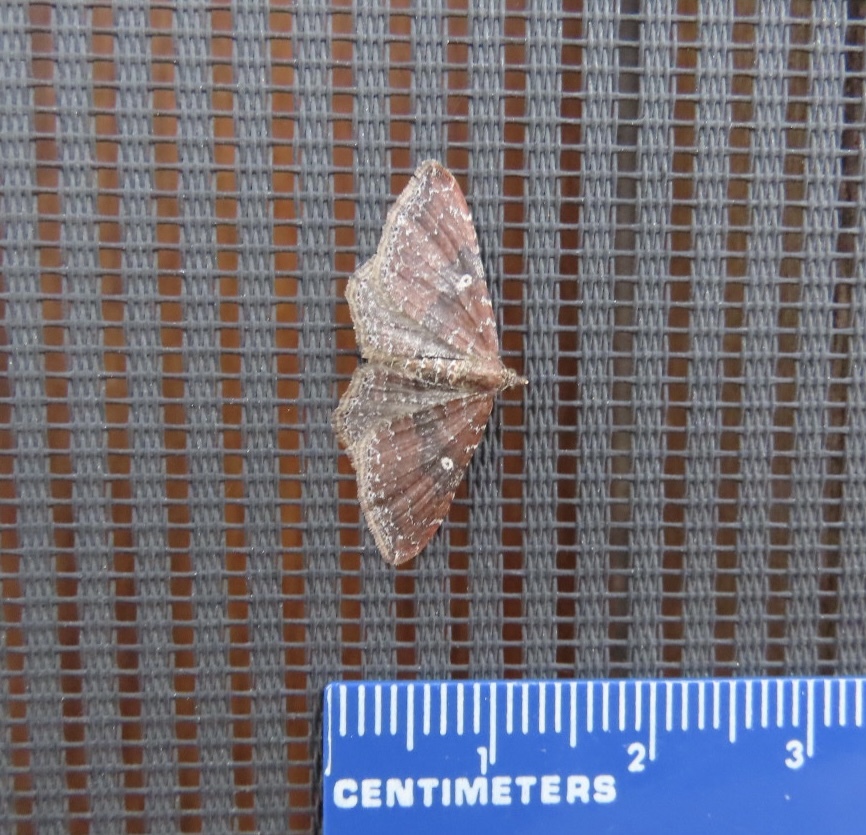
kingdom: Animalia
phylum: Arthropoda
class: Insecta
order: Lepidoptera
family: Geometridae
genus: Orthonama
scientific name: Orthonama obstipata
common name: The gem
